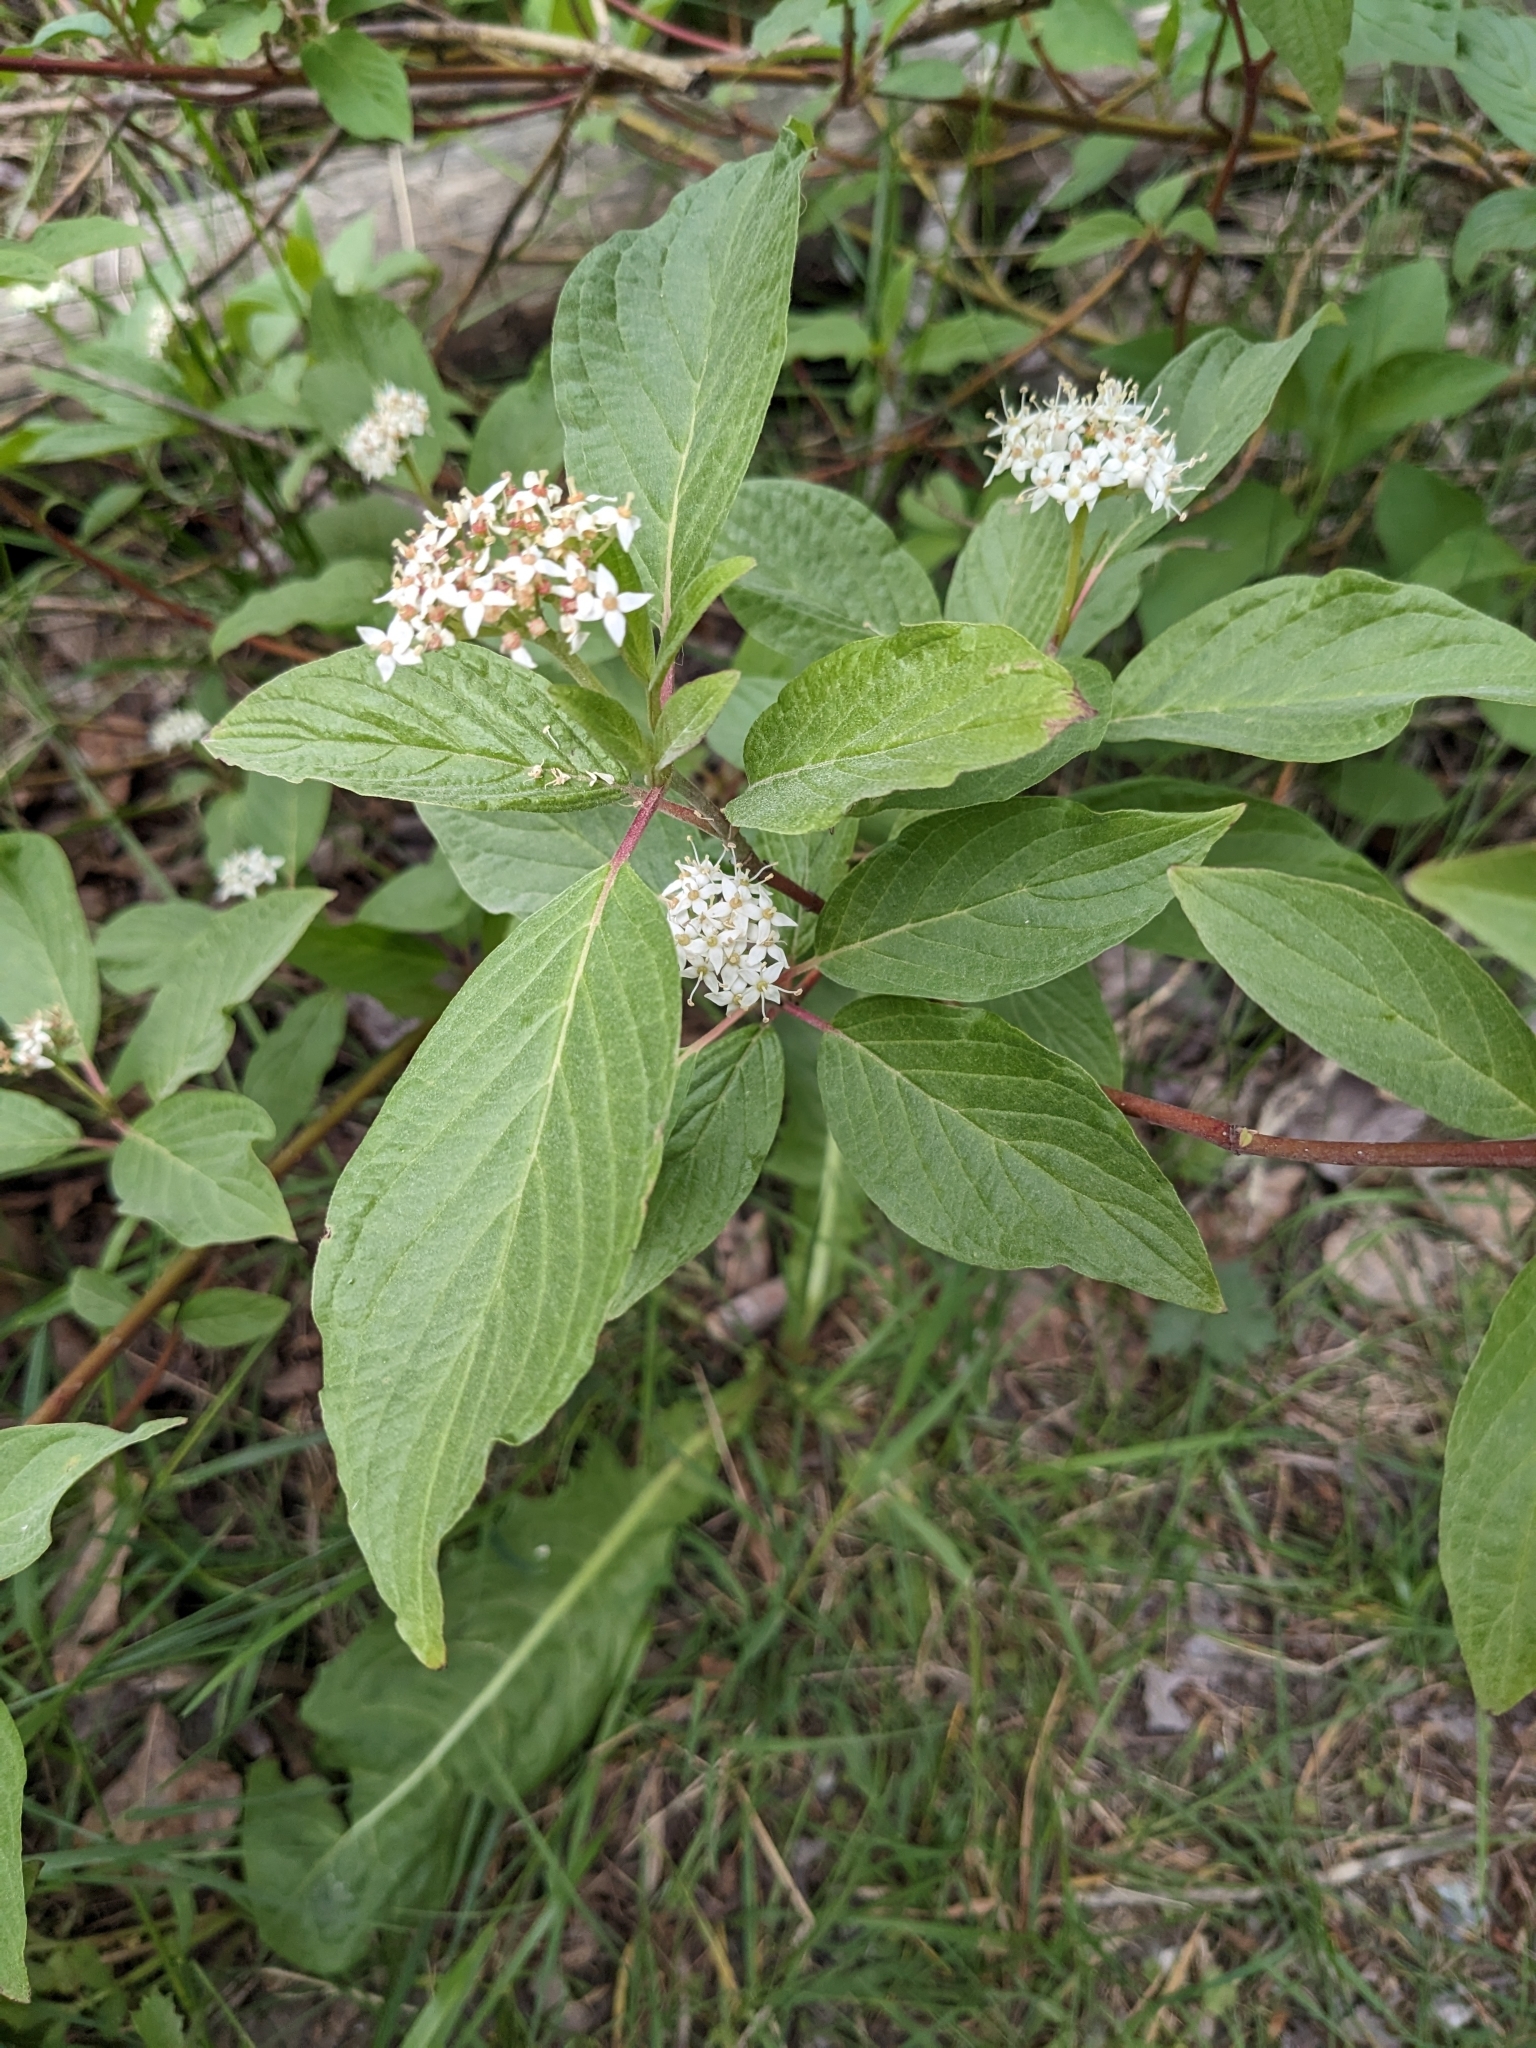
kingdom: Plantae
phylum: Tracheophyta
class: Magnoliopsida
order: Cornales
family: Cornaceae
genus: Cornus
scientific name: Cornus sericea
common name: Red-osier dogwood
